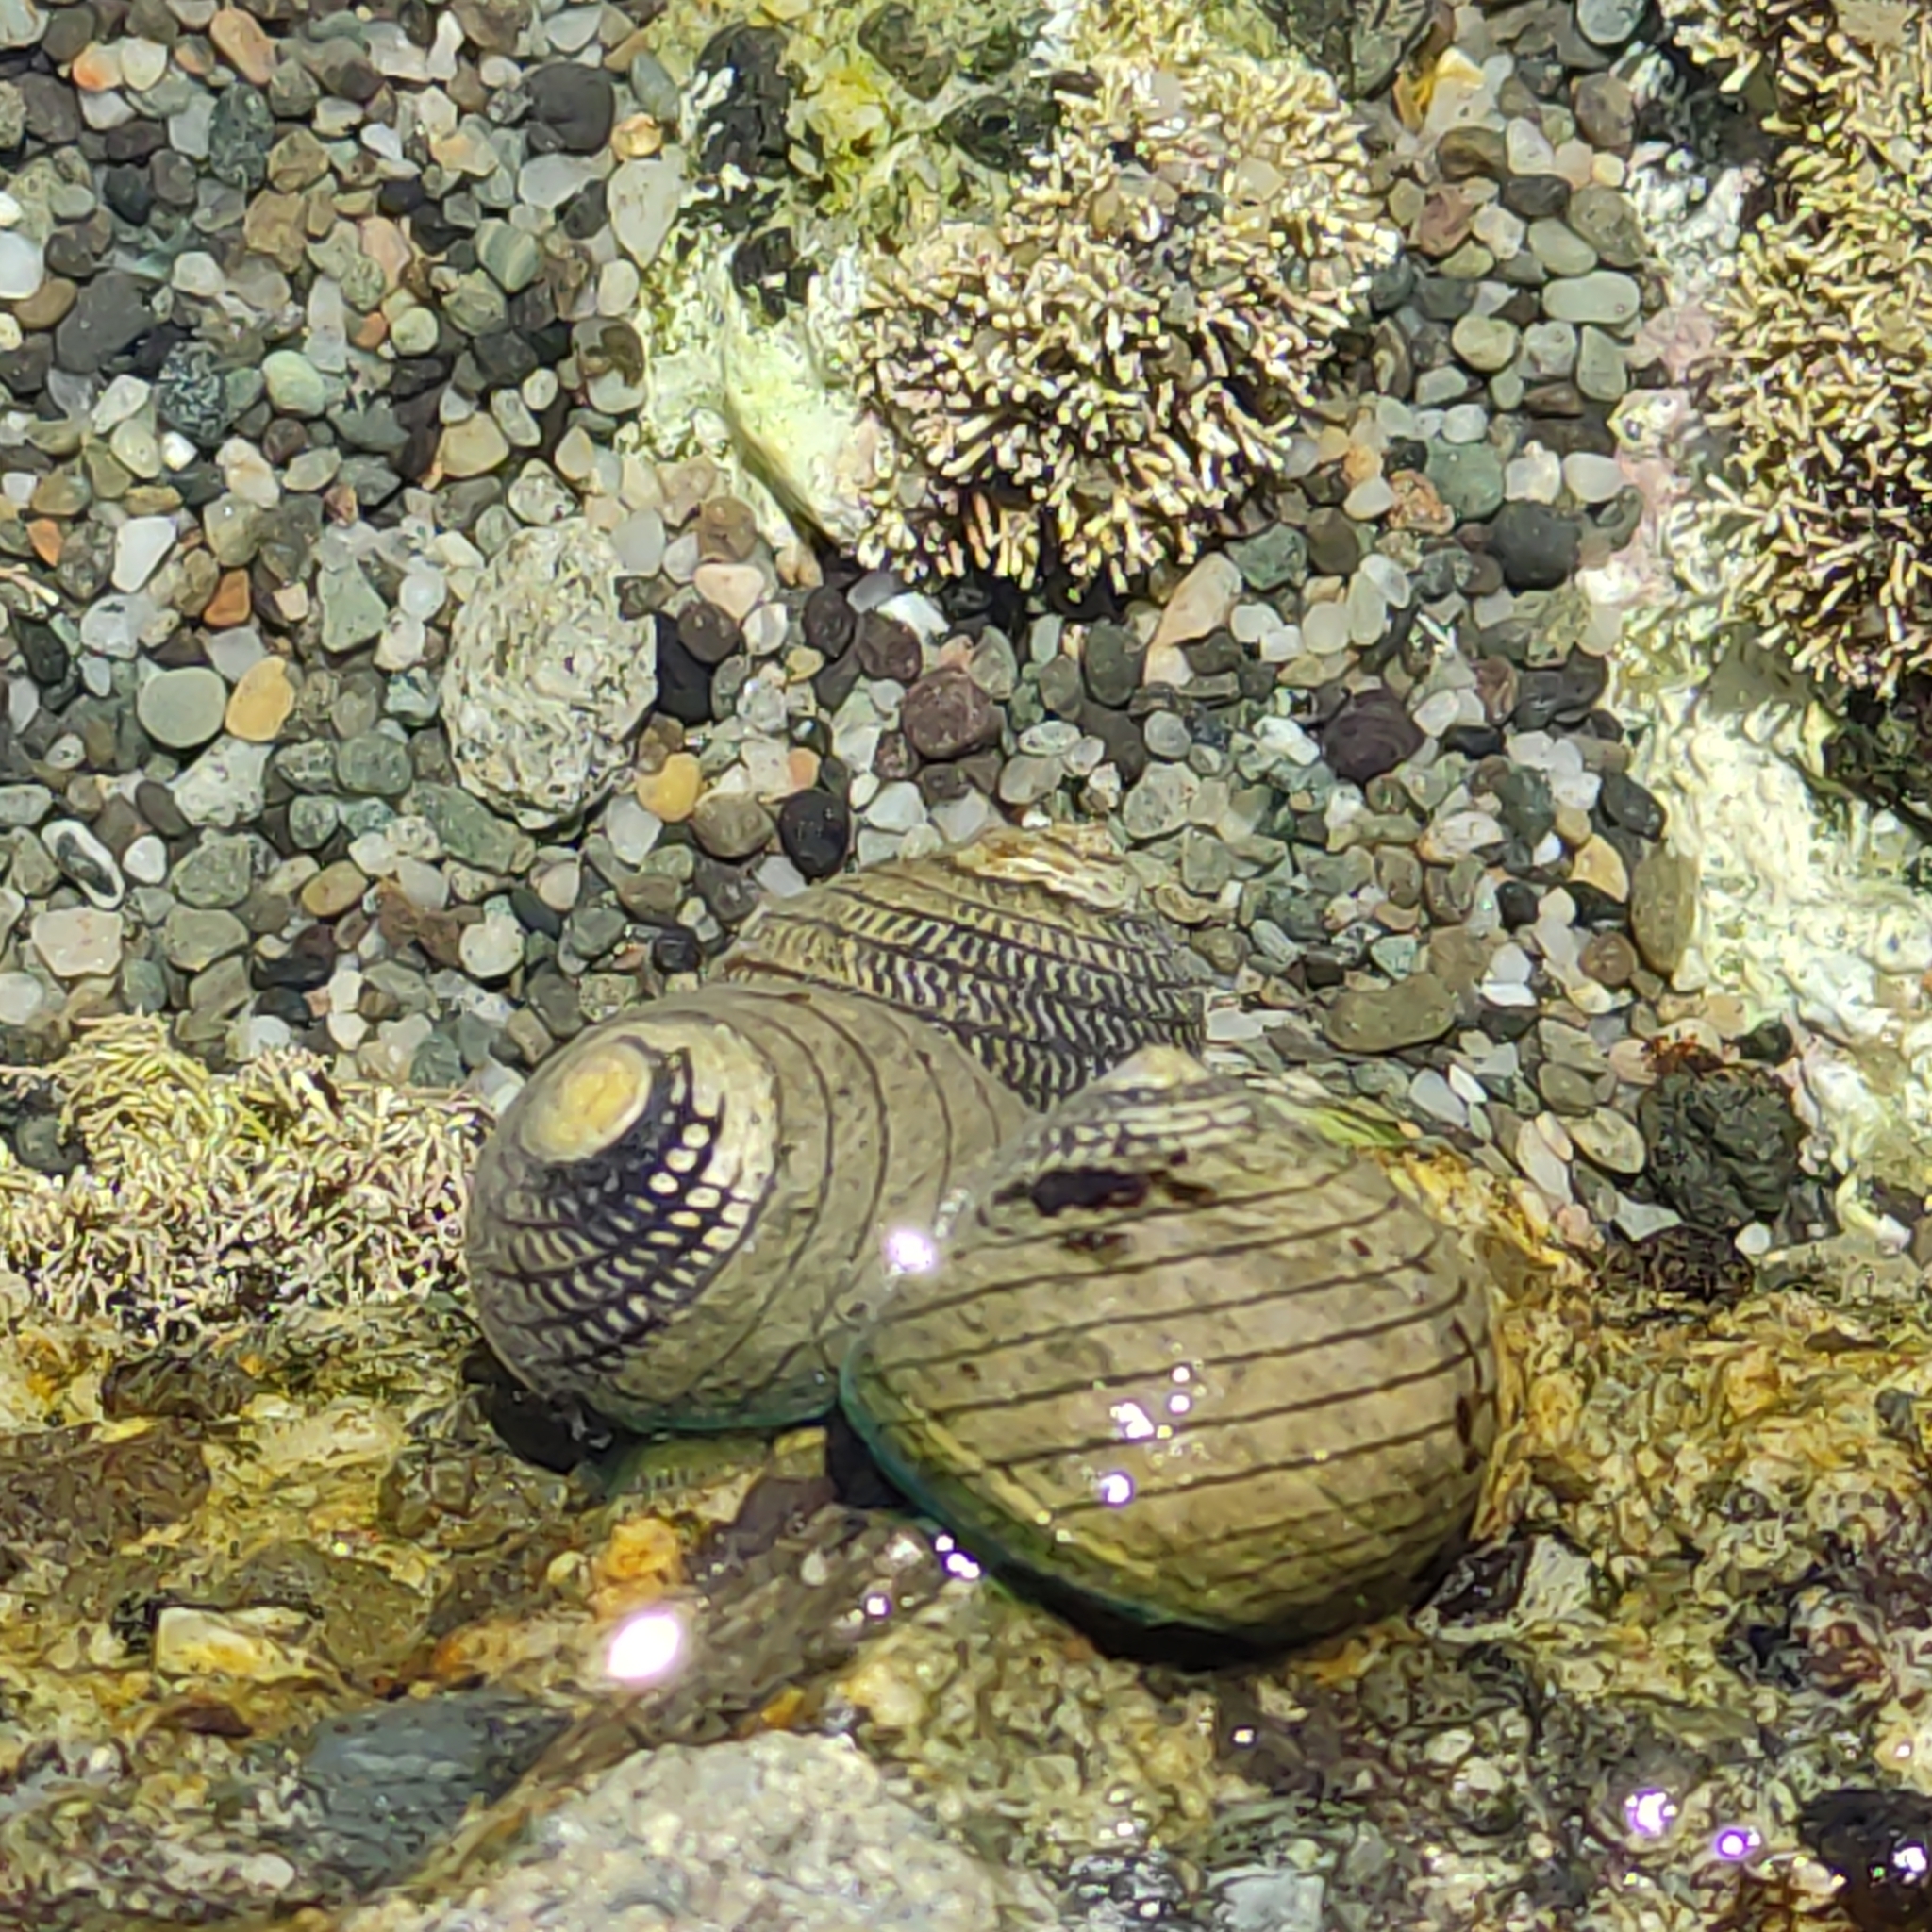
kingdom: Animalia
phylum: Mollusca
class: Gastropoda
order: Trochida
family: Trochidae
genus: Diloma
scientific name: Diloma aethiops
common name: Scorched monodont
